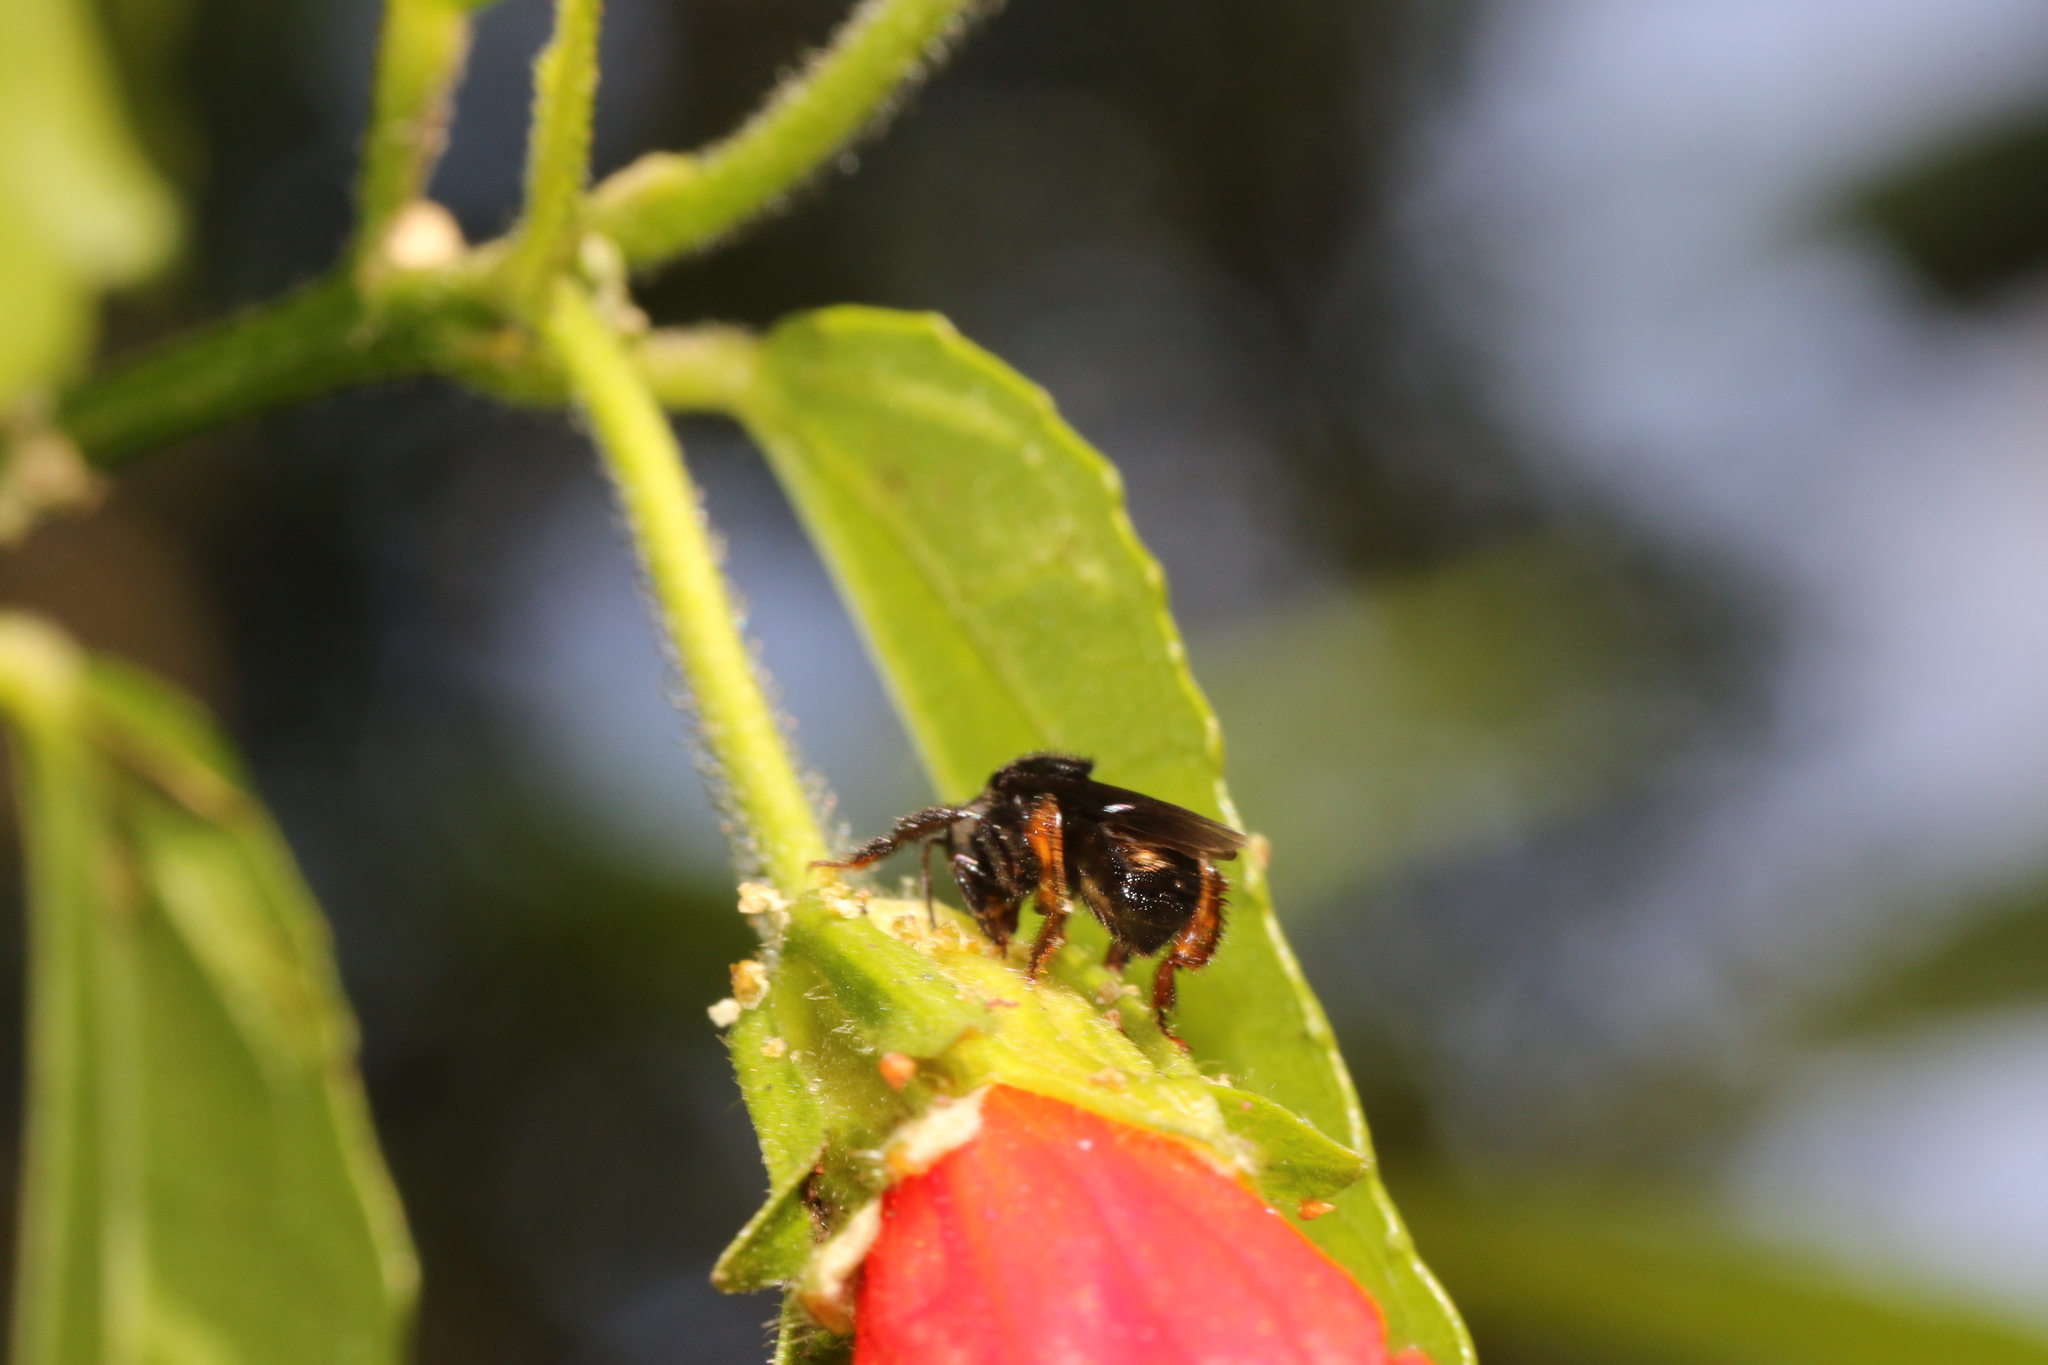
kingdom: Animalia
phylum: Arthropoda
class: Insecta
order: Hymenoptera
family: Apidae
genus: Trigona
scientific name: Trigona spinipes
